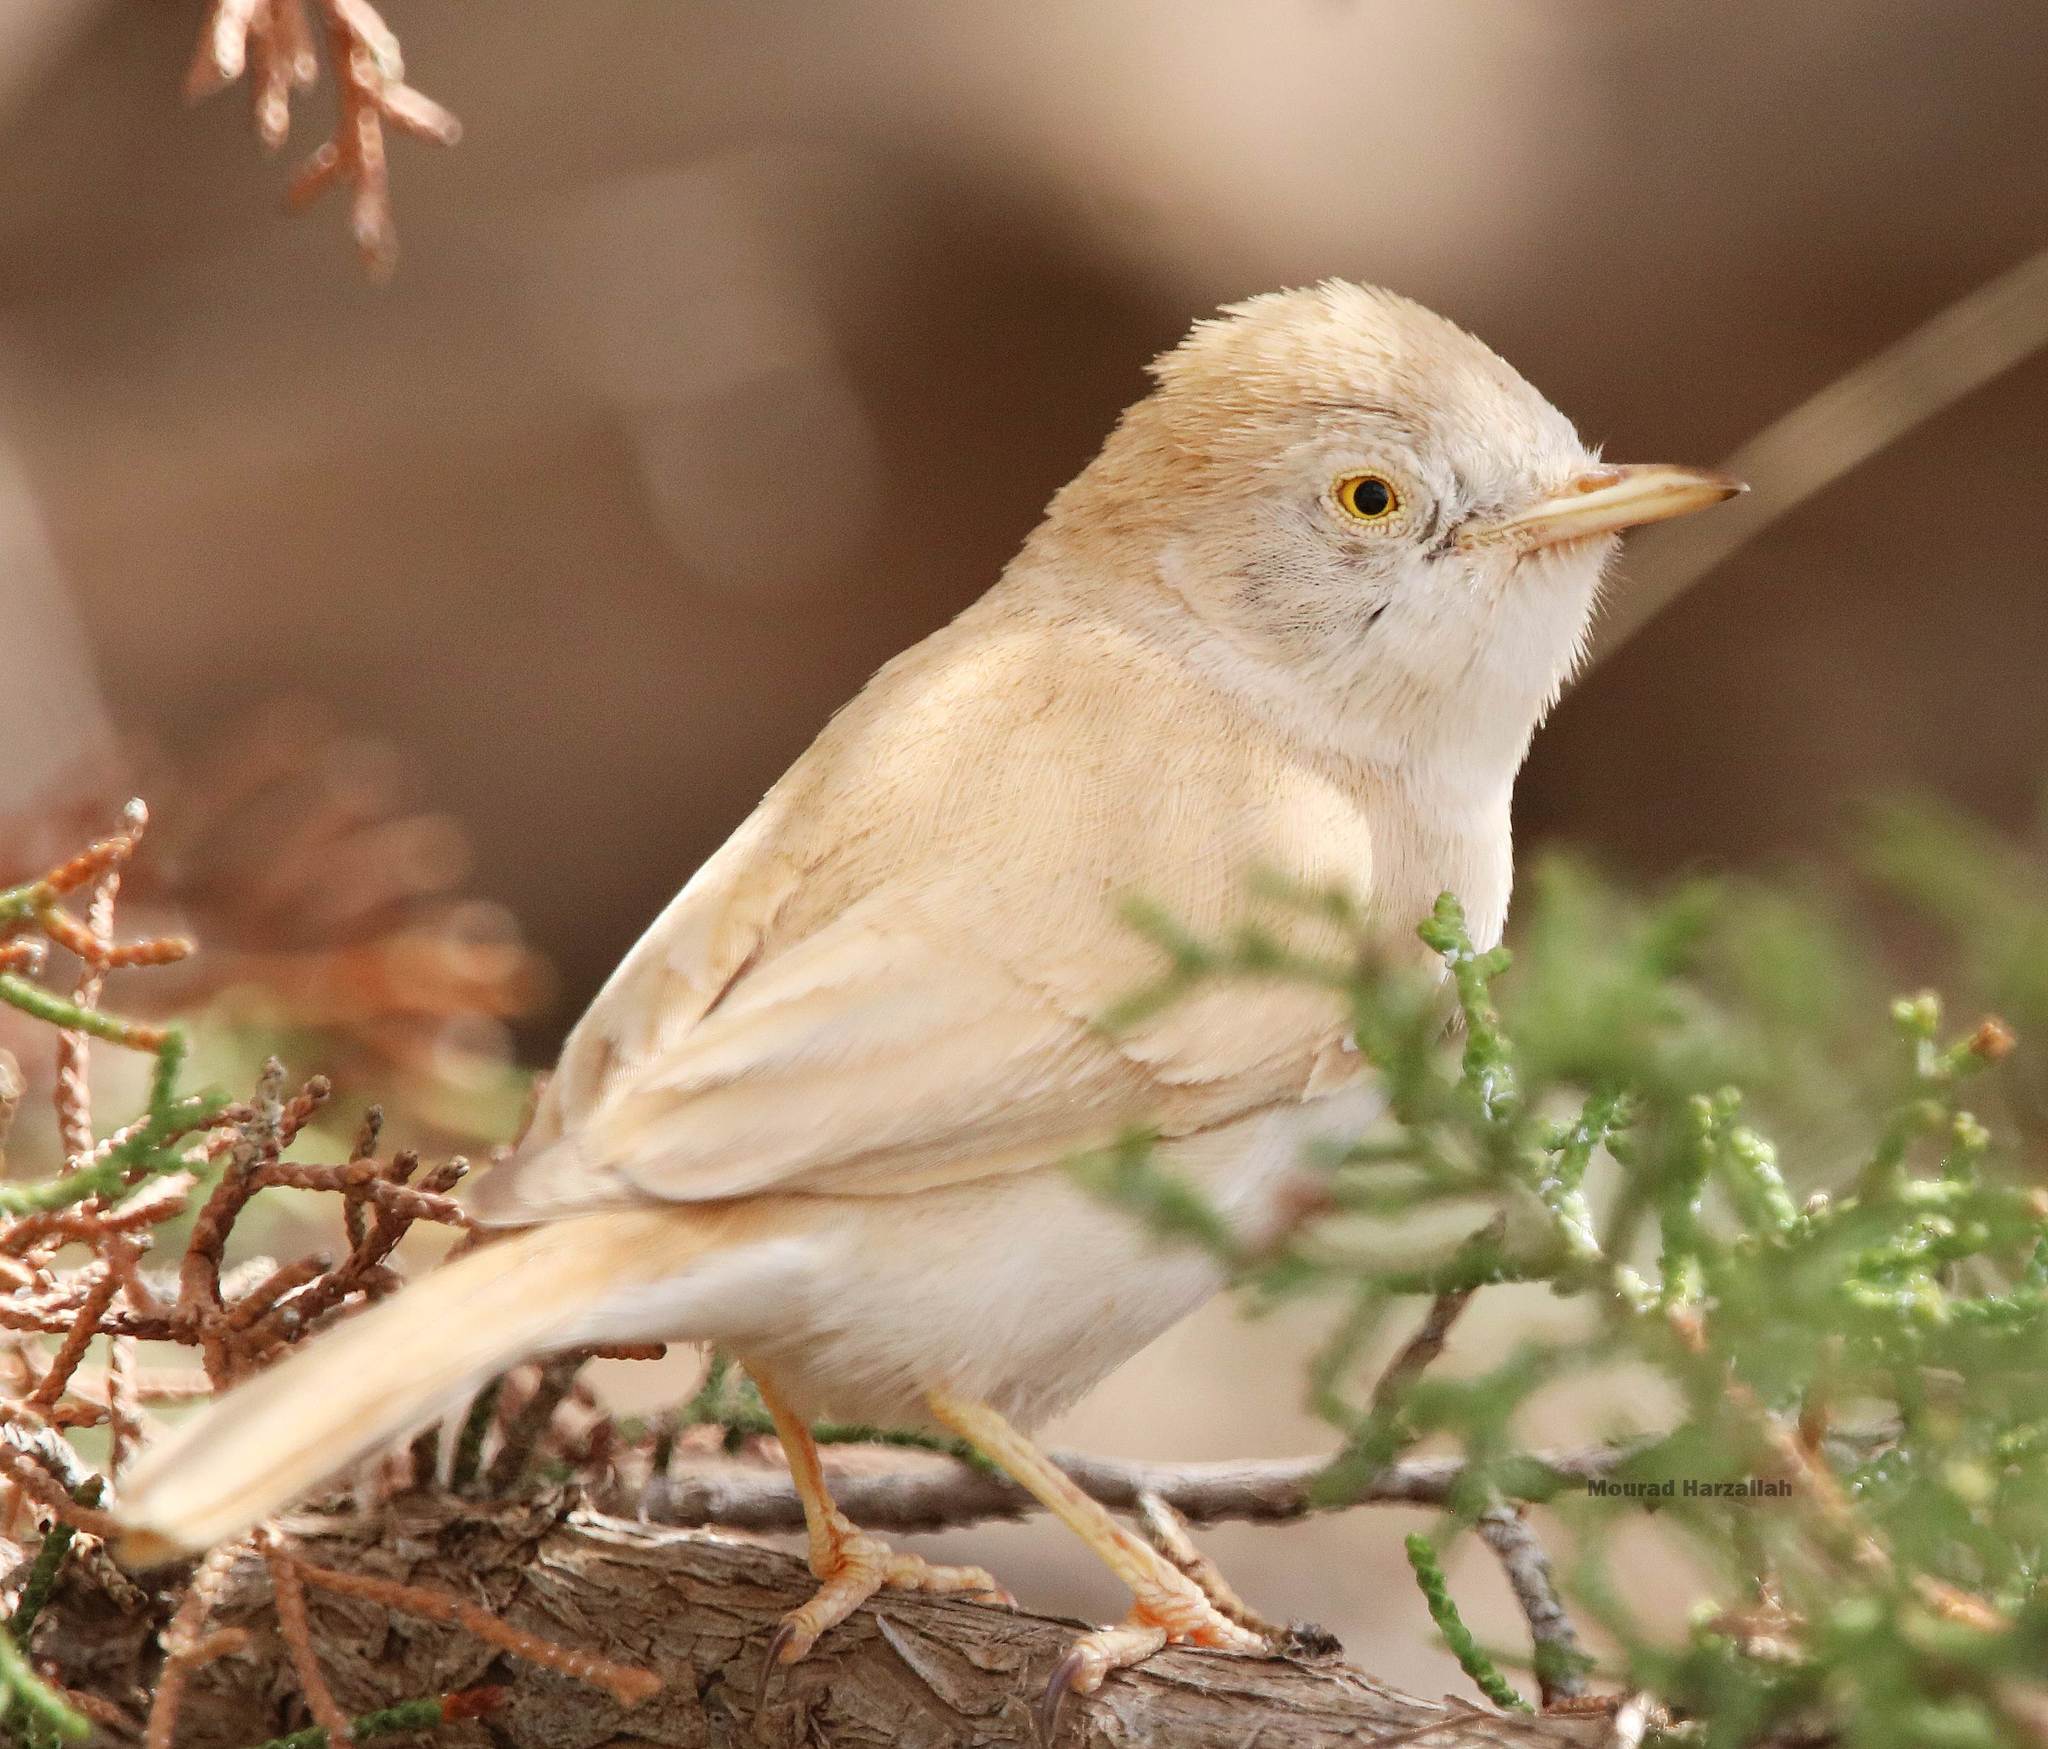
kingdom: Animalia
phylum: Chordata
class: Aves
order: Passeriformes
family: Sylviidae
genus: Sylvia
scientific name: Sylvia deserti
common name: African desert warbler
